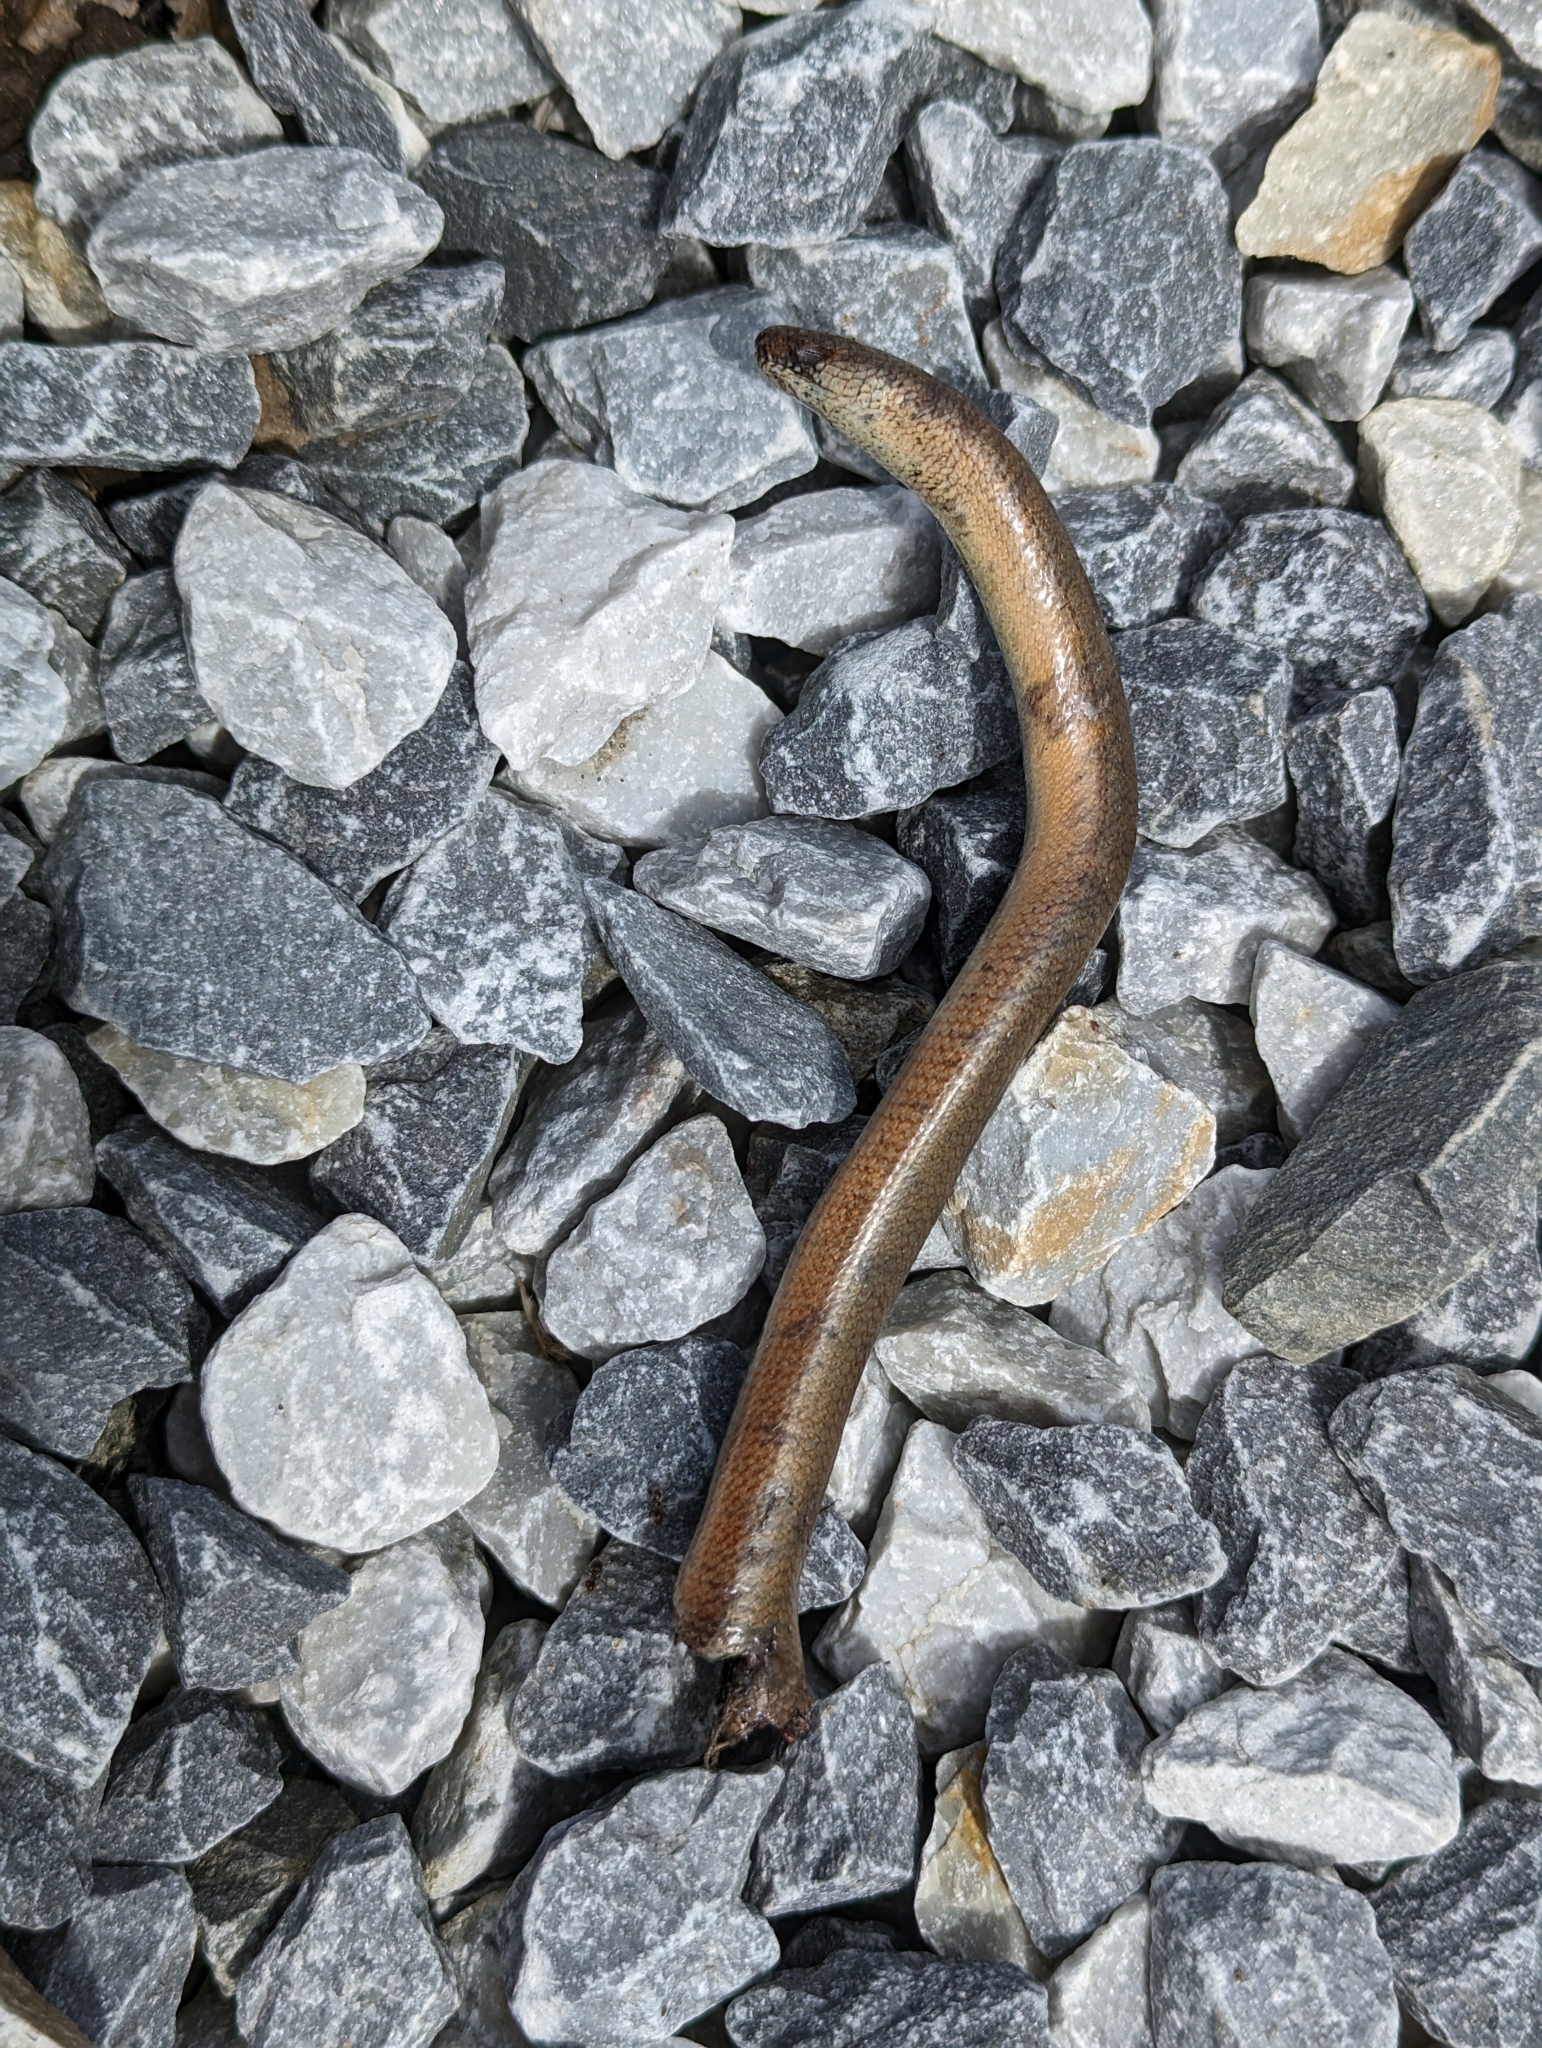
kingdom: Animalia
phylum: Chordata
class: Squamata
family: Anguidae
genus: Anguis
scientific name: Anguis fragilis
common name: Slow worm
